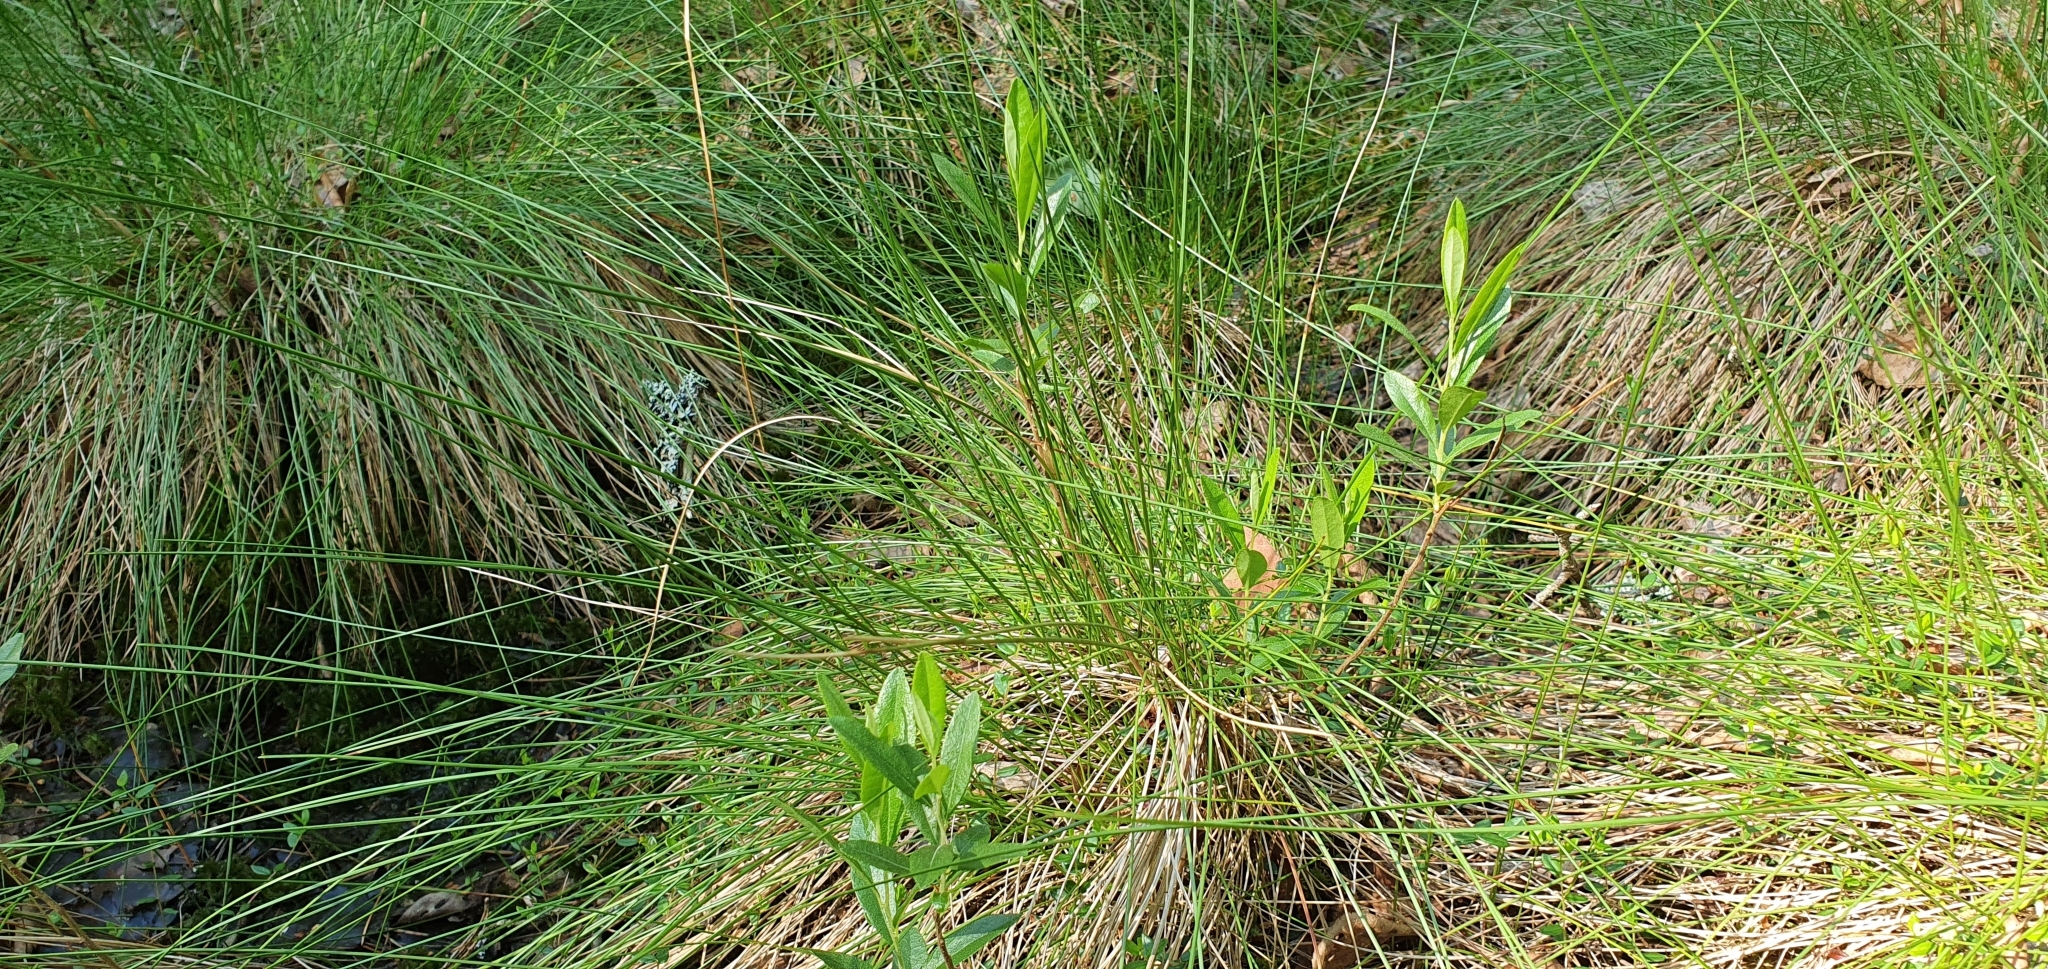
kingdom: Plantae
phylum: Tracheophyta
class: Magnoliopsida
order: Ericales
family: Ericaceae
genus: Chamaedaphne
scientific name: Chamaedaphne calyculata
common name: Leatherleaf
